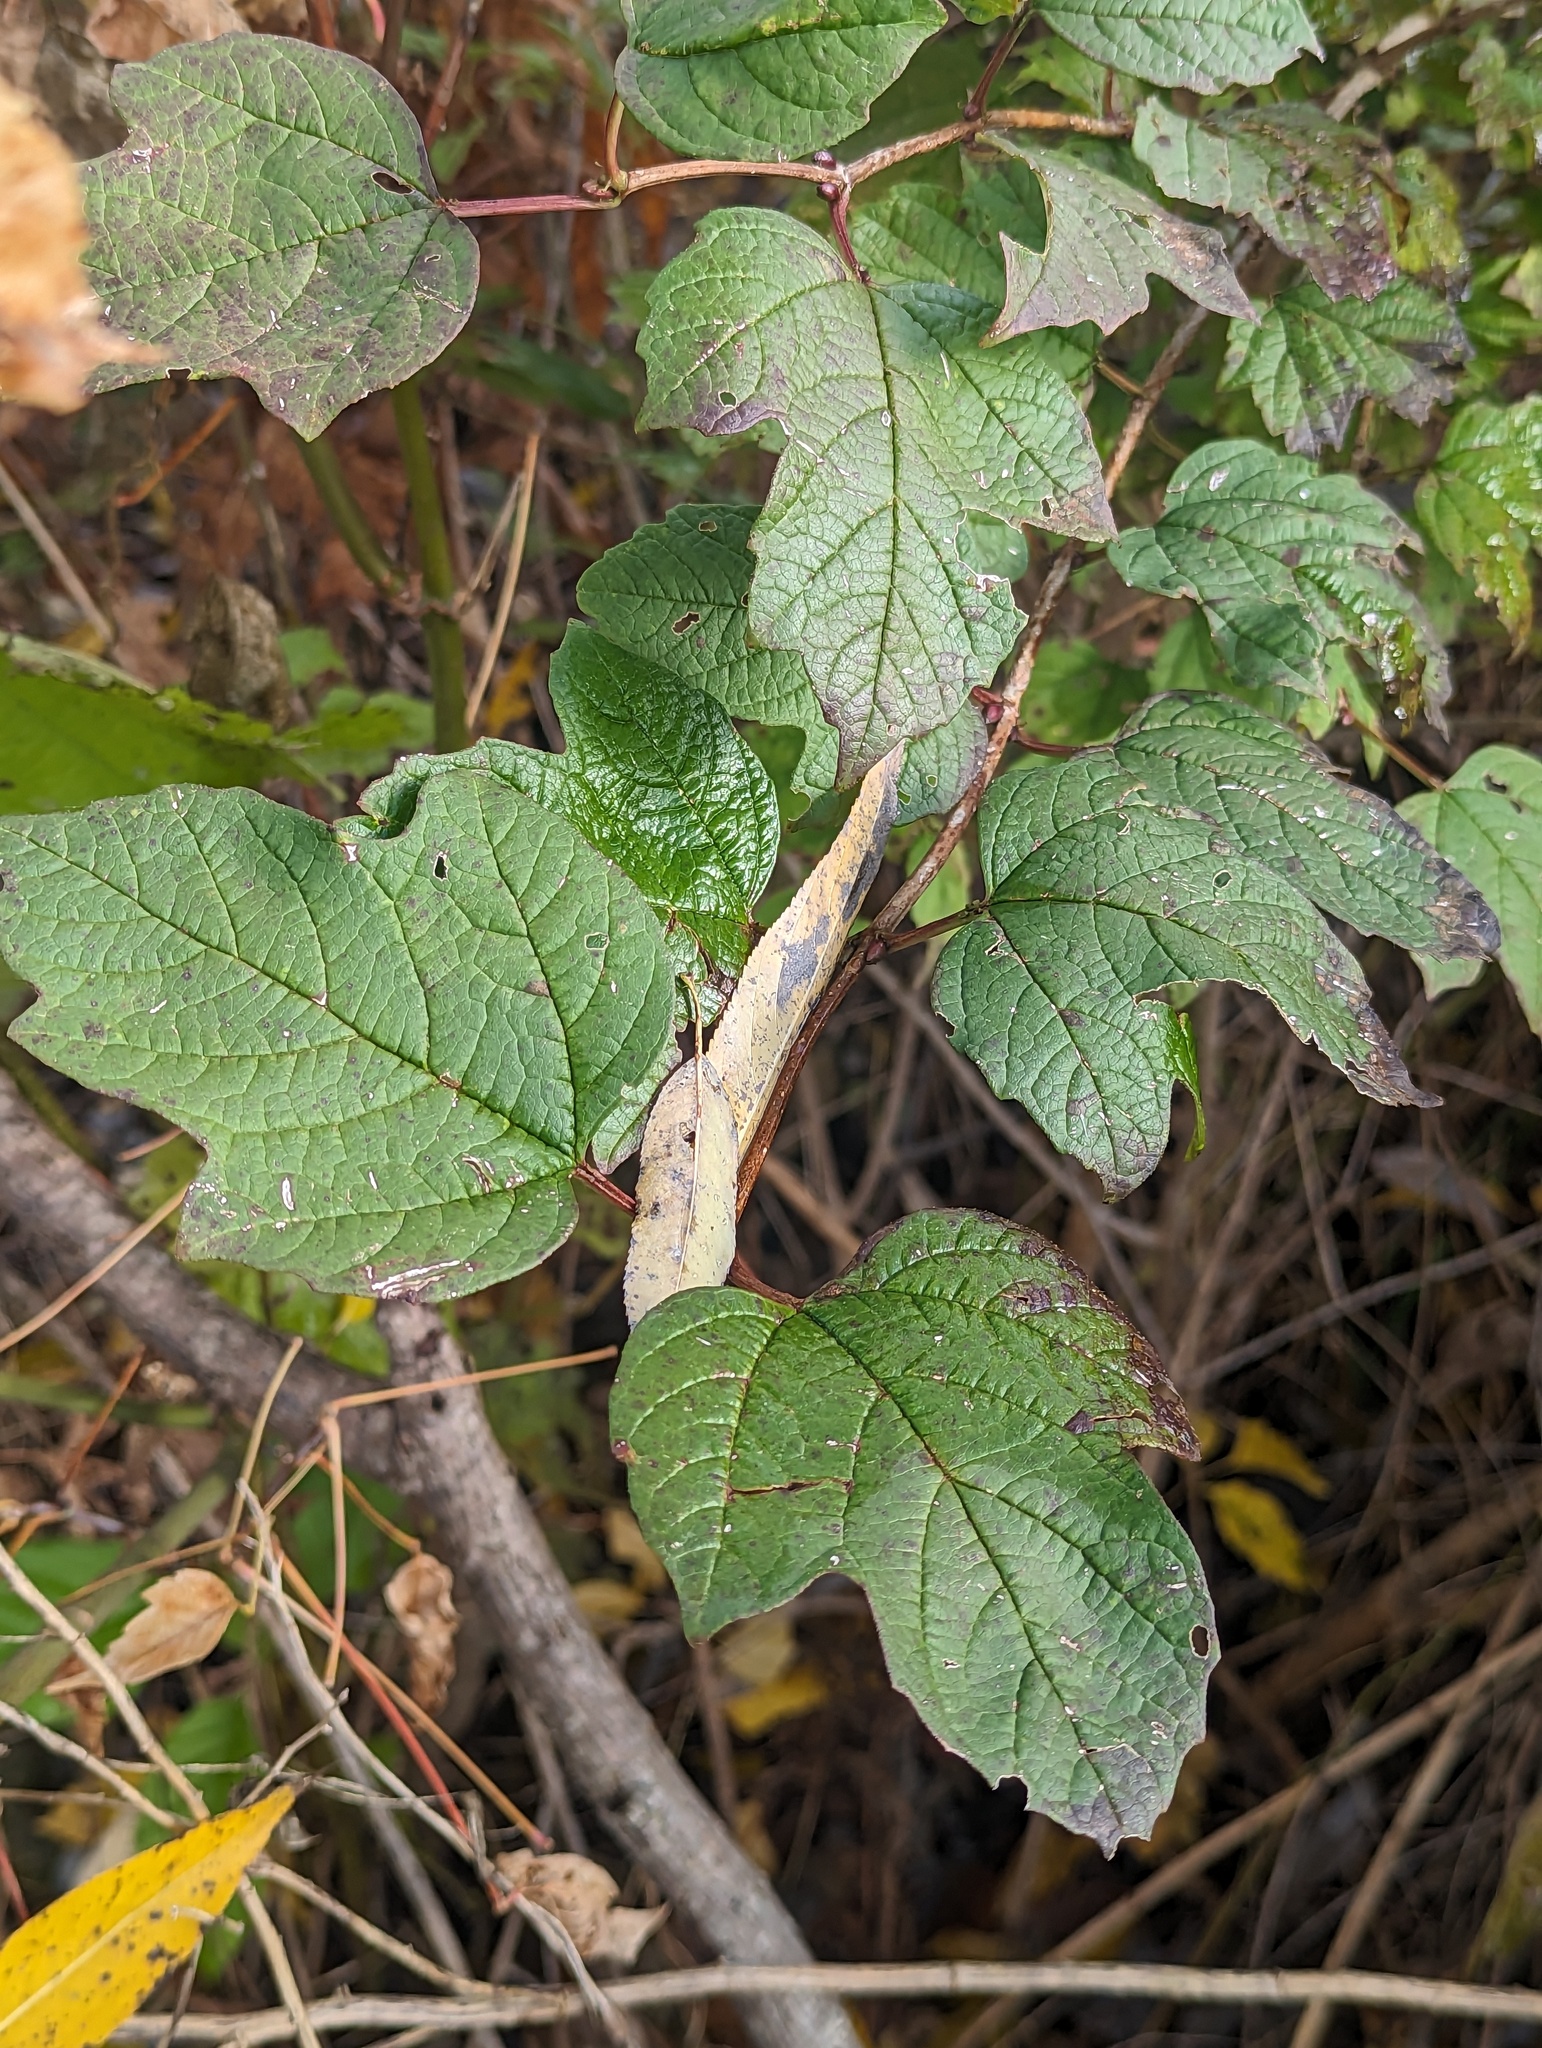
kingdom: Plantae
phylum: Tracheophyta
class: Magnoliopsida
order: Dipsacales
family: Viburnaceae
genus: Viburnum
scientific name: Viburnum opulus
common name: Guelder-rose
